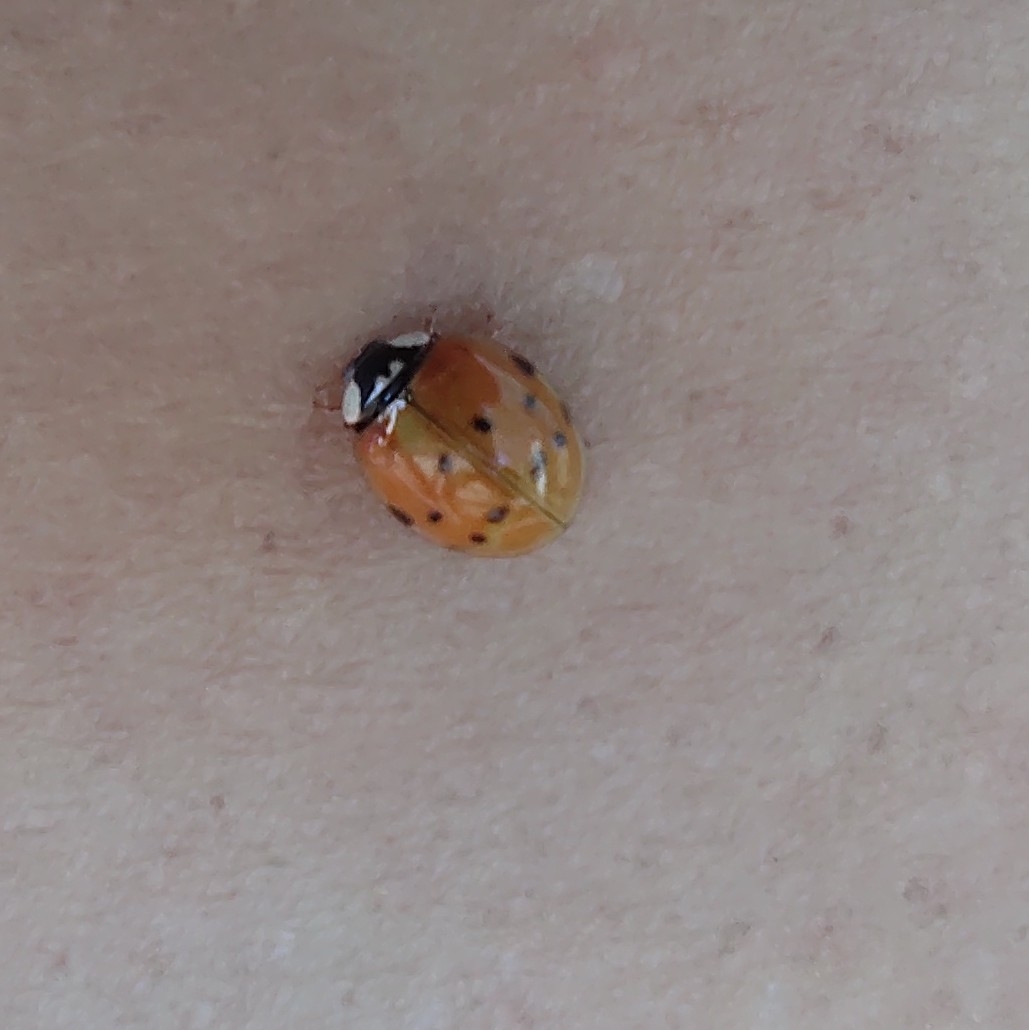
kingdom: Animalia
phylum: Arthropoda
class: Insecta
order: Coleoptera
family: Coccinellidae
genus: Harmonia
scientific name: Harmonia axyridis
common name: Harlequin ladybird
